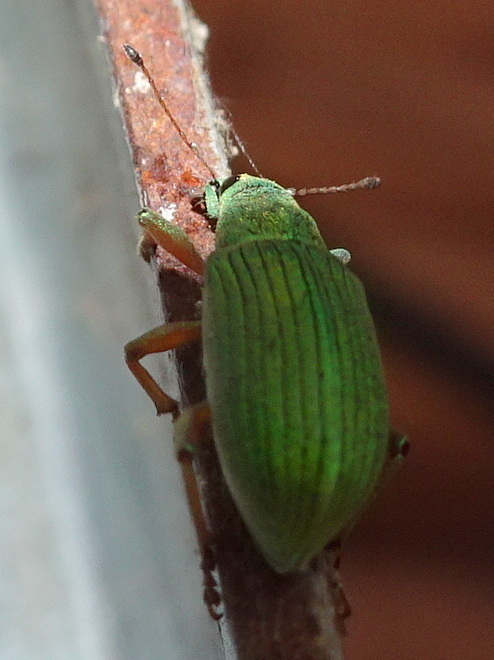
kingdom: Animalia
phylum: Arthropoda
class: Insecta
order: Coleoptera
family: Curculionidae
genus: Polydrusus
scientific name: Polydrusus formosus
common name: Weevil
